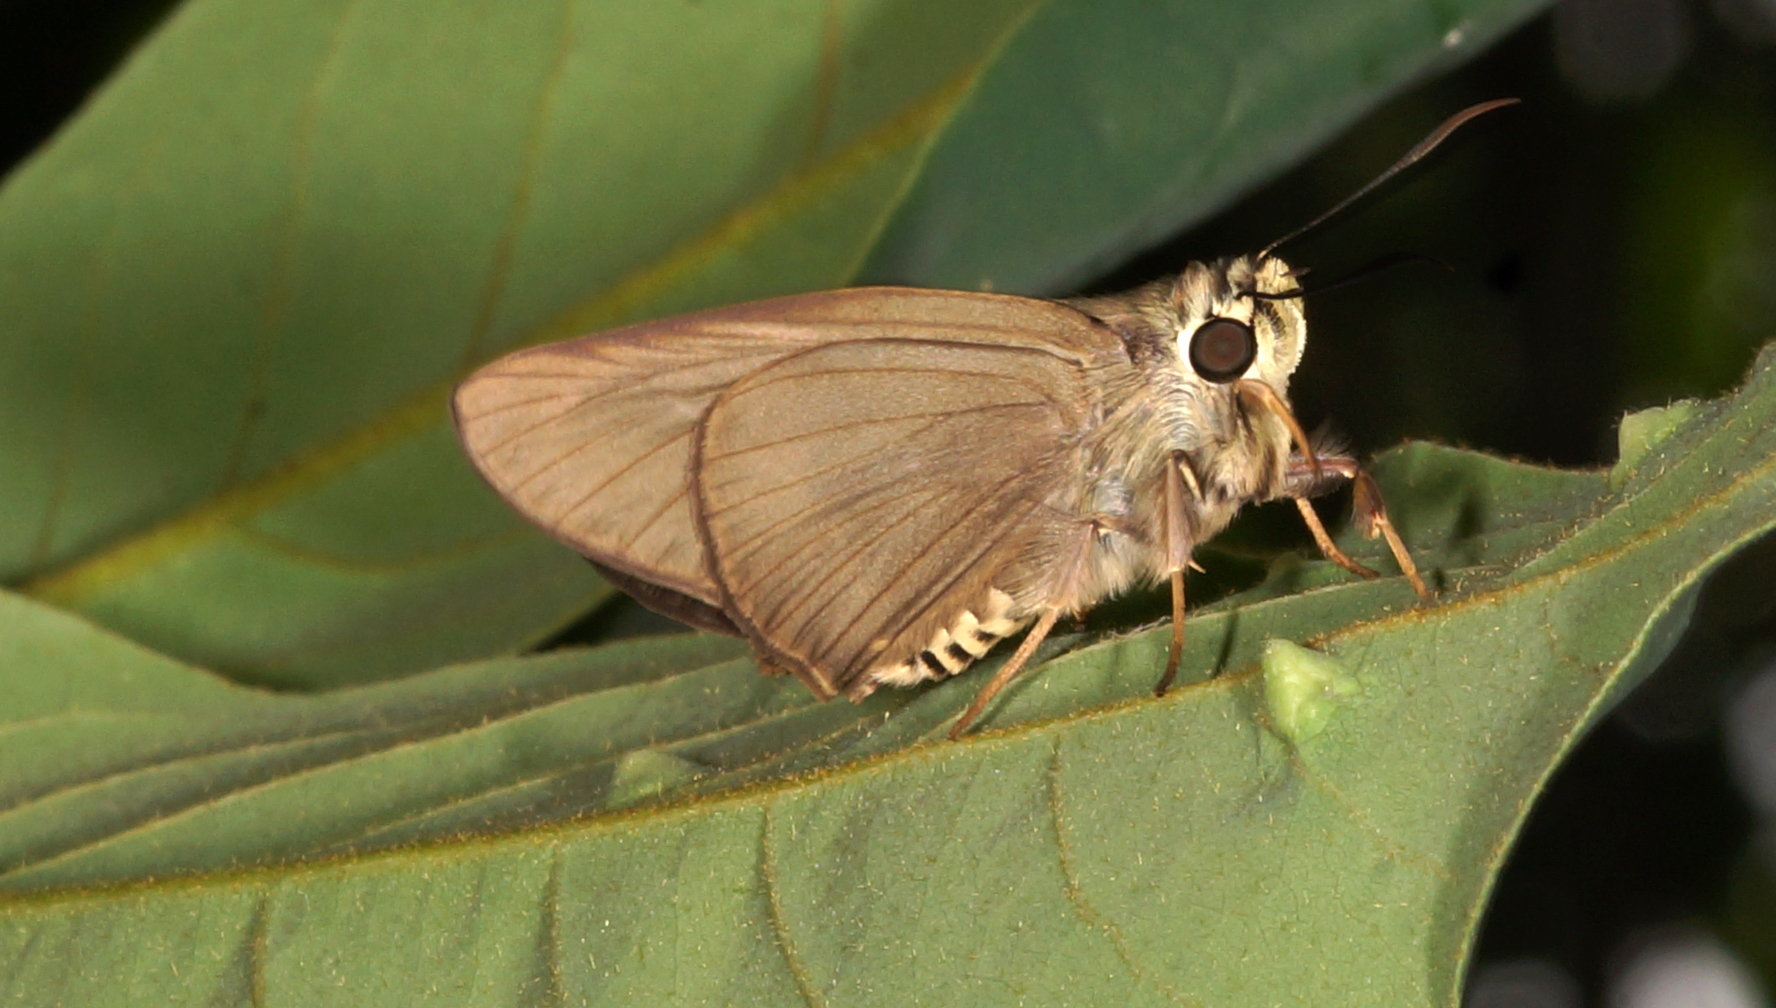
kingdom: Animalia
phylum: Arthropoda
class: Insecta
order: Lepidoptera
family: Hesperiidae
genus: Badamia
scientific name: Badamia exclamationis
